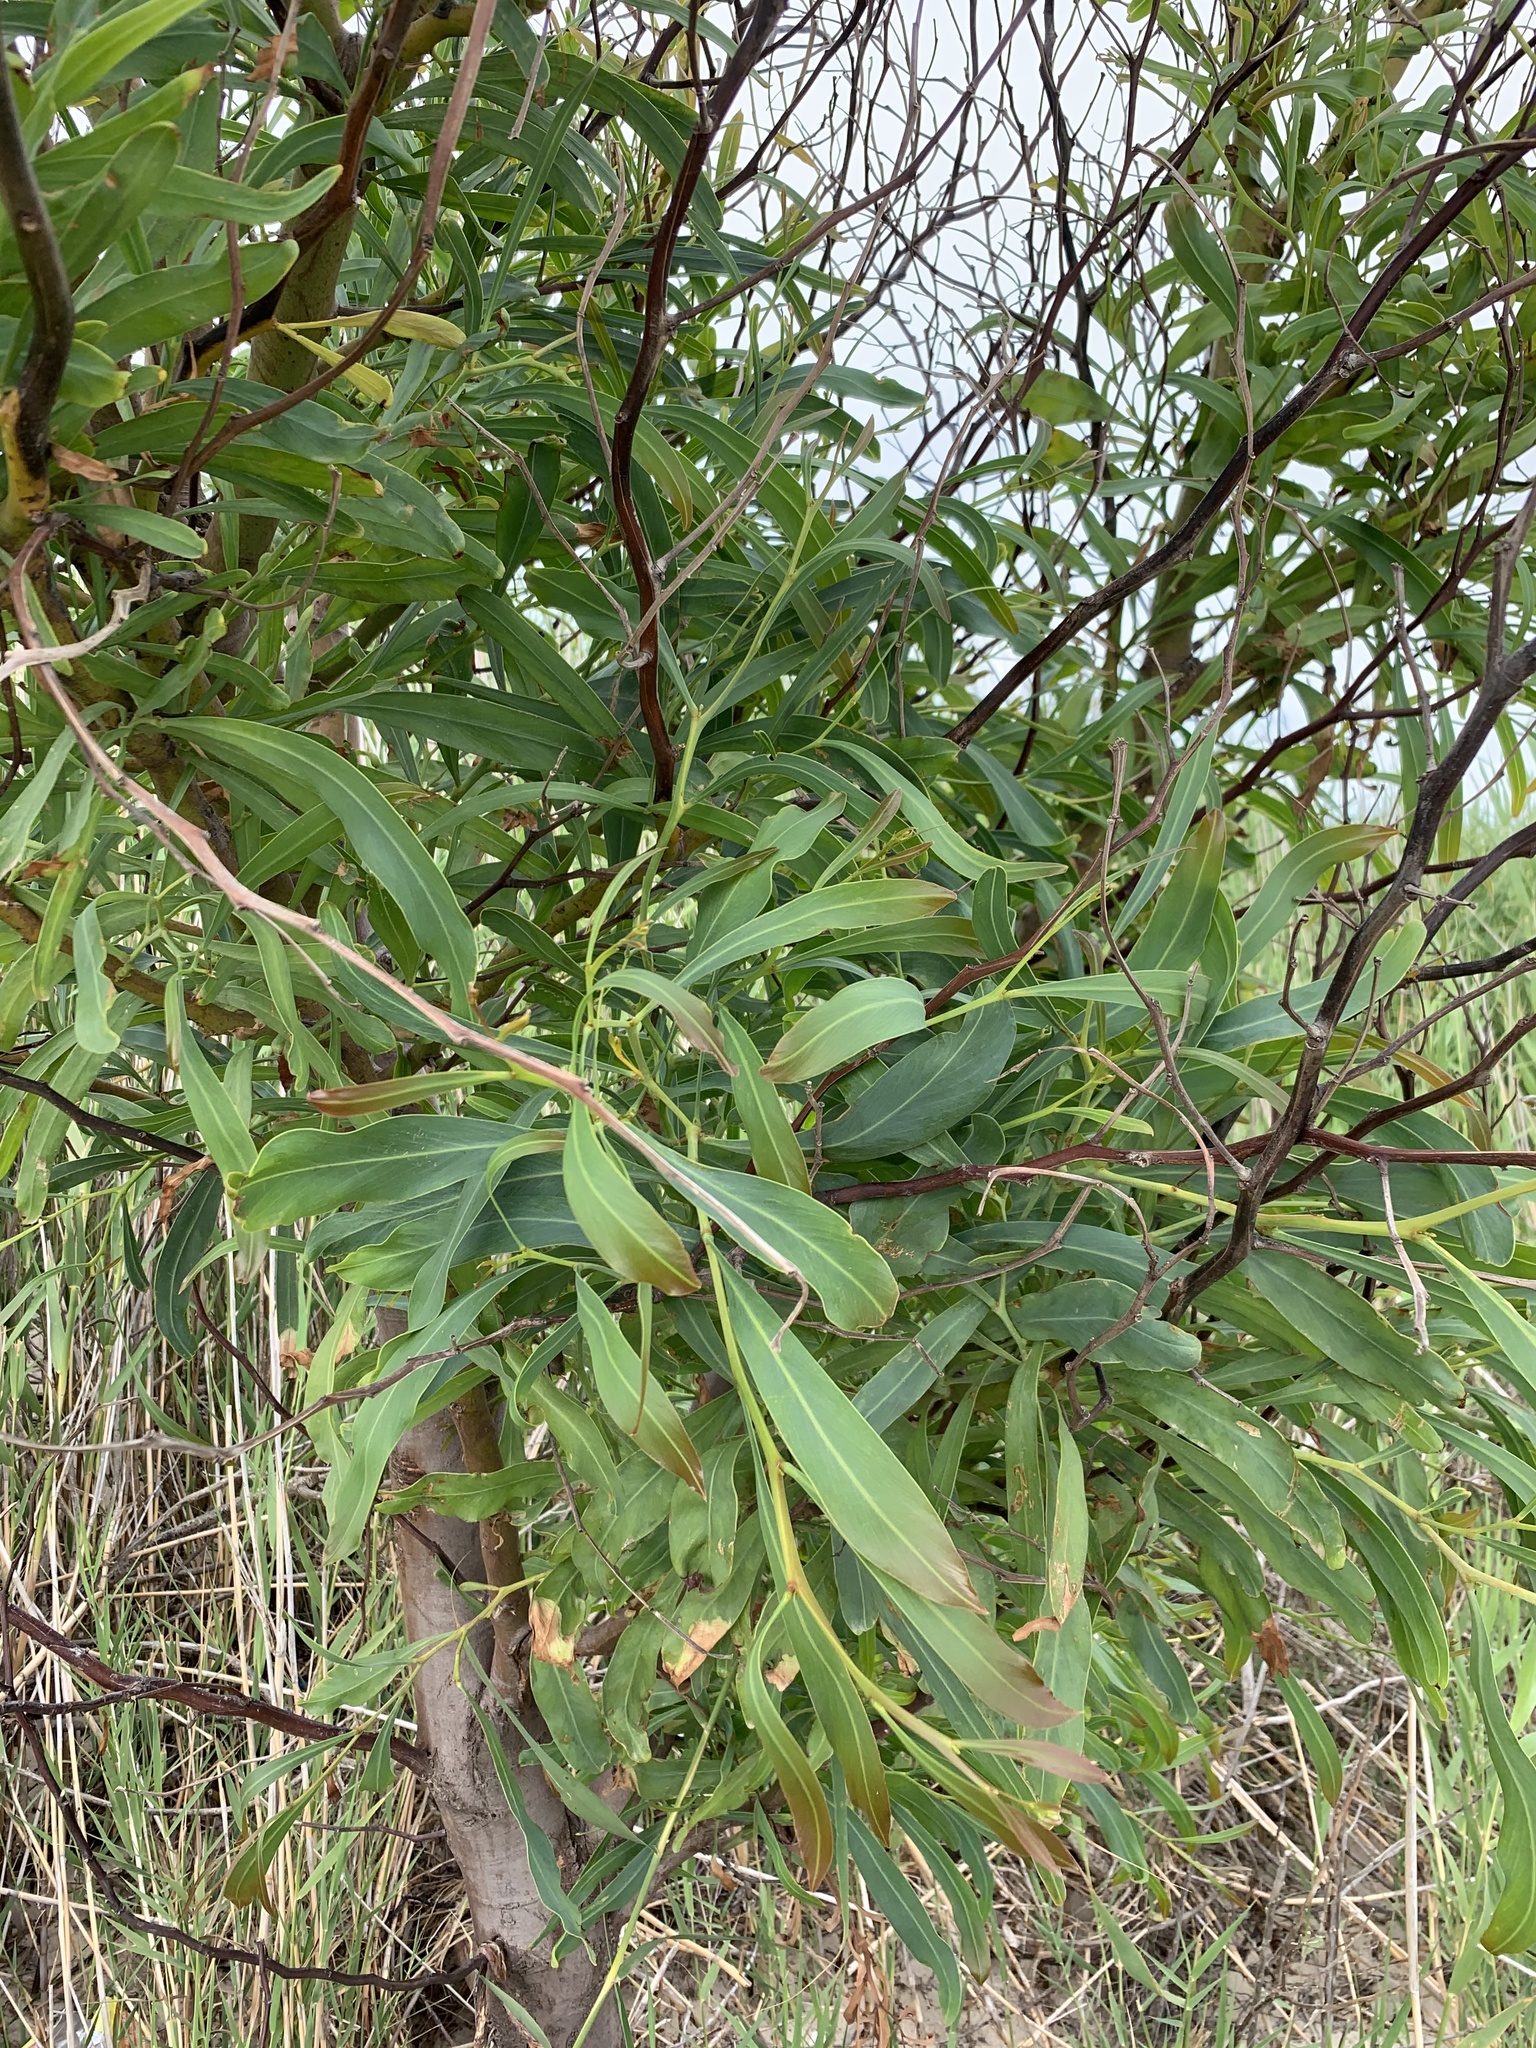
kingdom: Plantae
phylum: Tracheophyta
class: Magnoliopsida
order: Fabales
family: Fabaceae
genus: Acacia
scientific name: Acacia saligna
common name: Orange wattle
